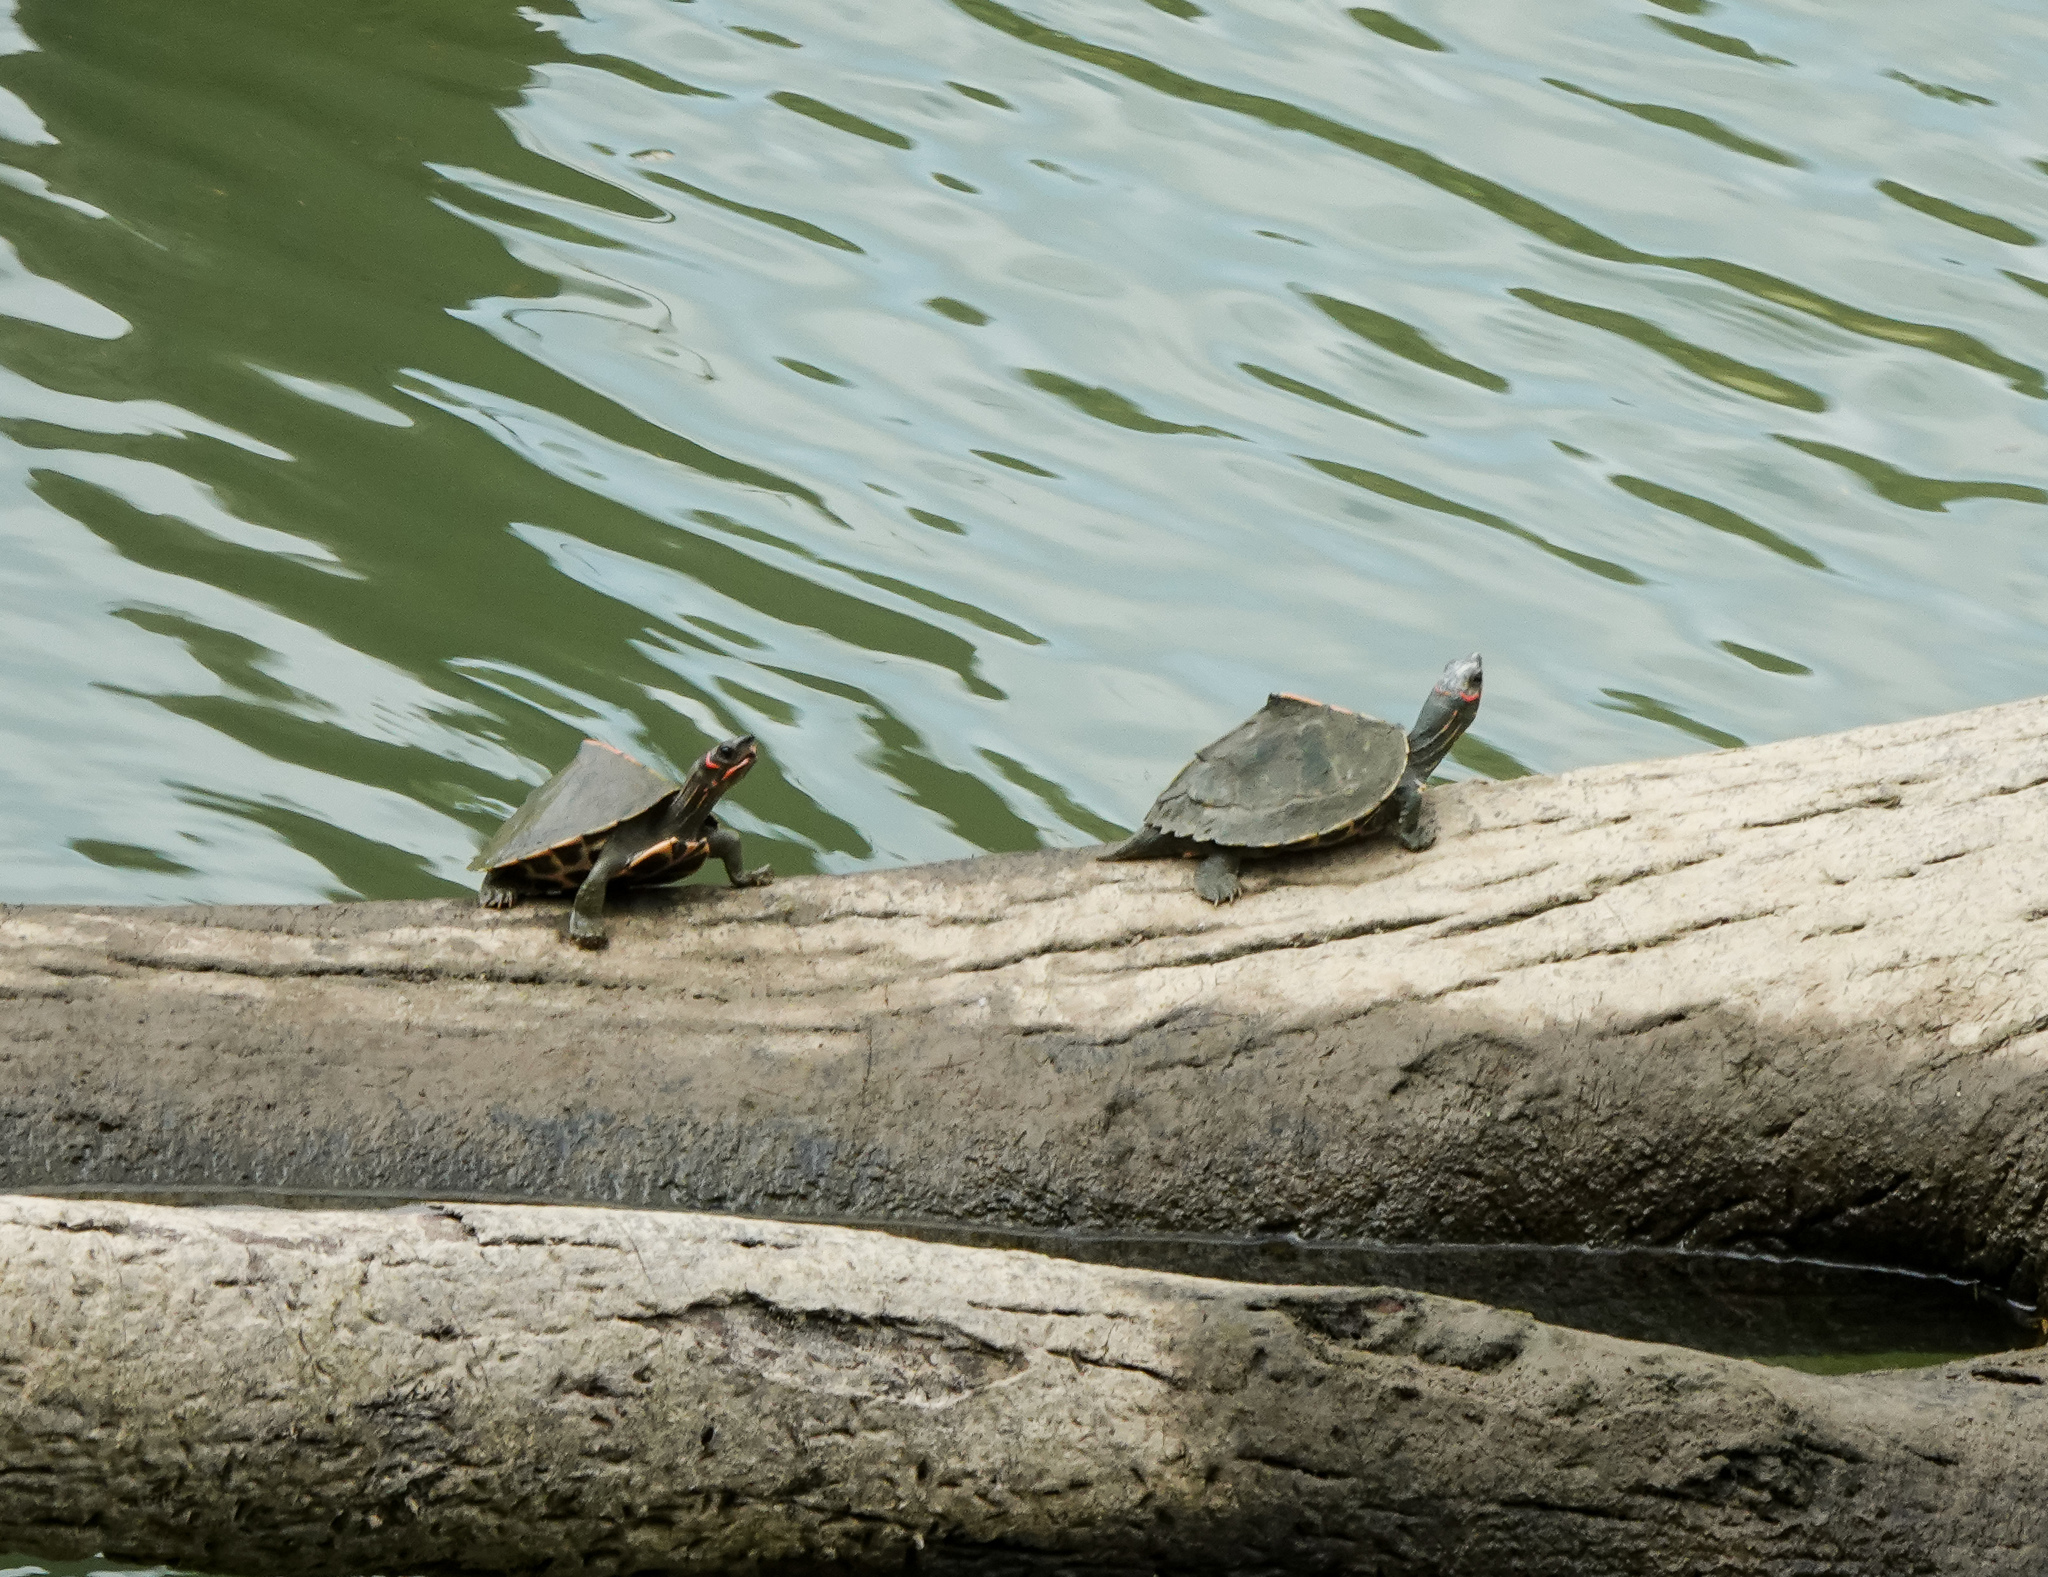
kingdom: Animalia
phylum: Chordata
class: Testudines
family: Geoemydidae
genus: Pangshura
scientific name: Pangshura sylhetensis
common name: Assam roofed turtle
